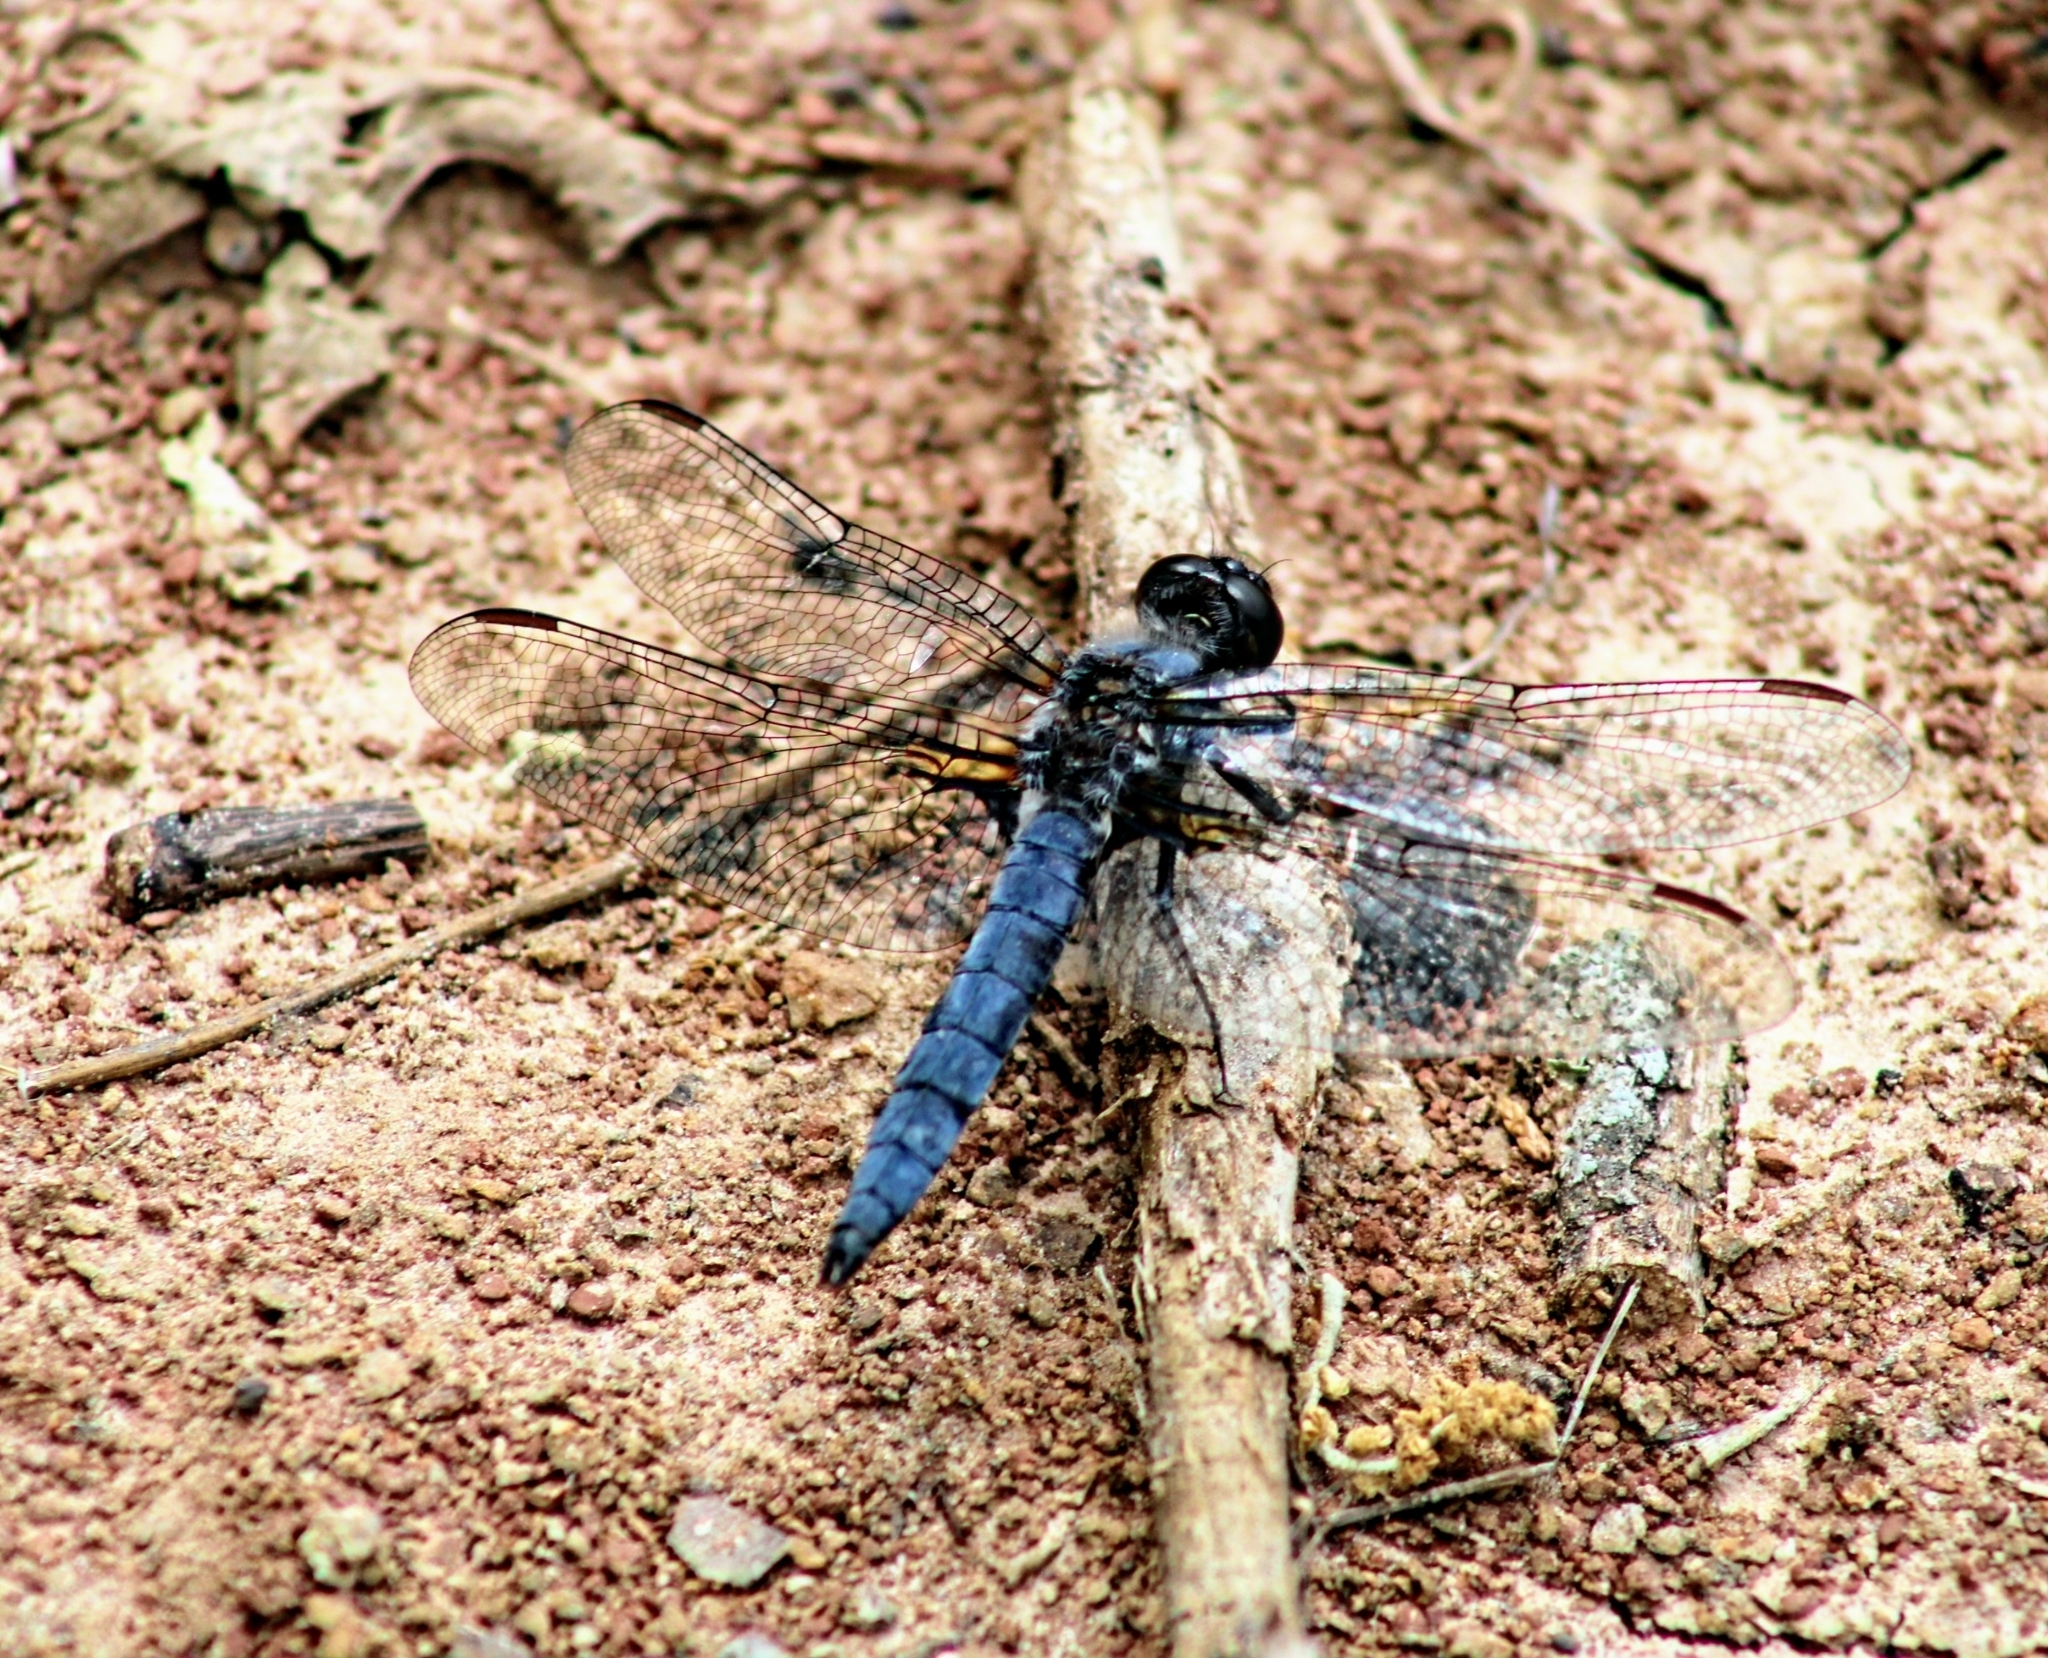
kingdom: Animalia
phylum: Arthropoda
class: Insecta
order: Odonata
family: Libellulidae
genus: Ladona
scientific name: Ladona deplanata
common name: Blue corporal
